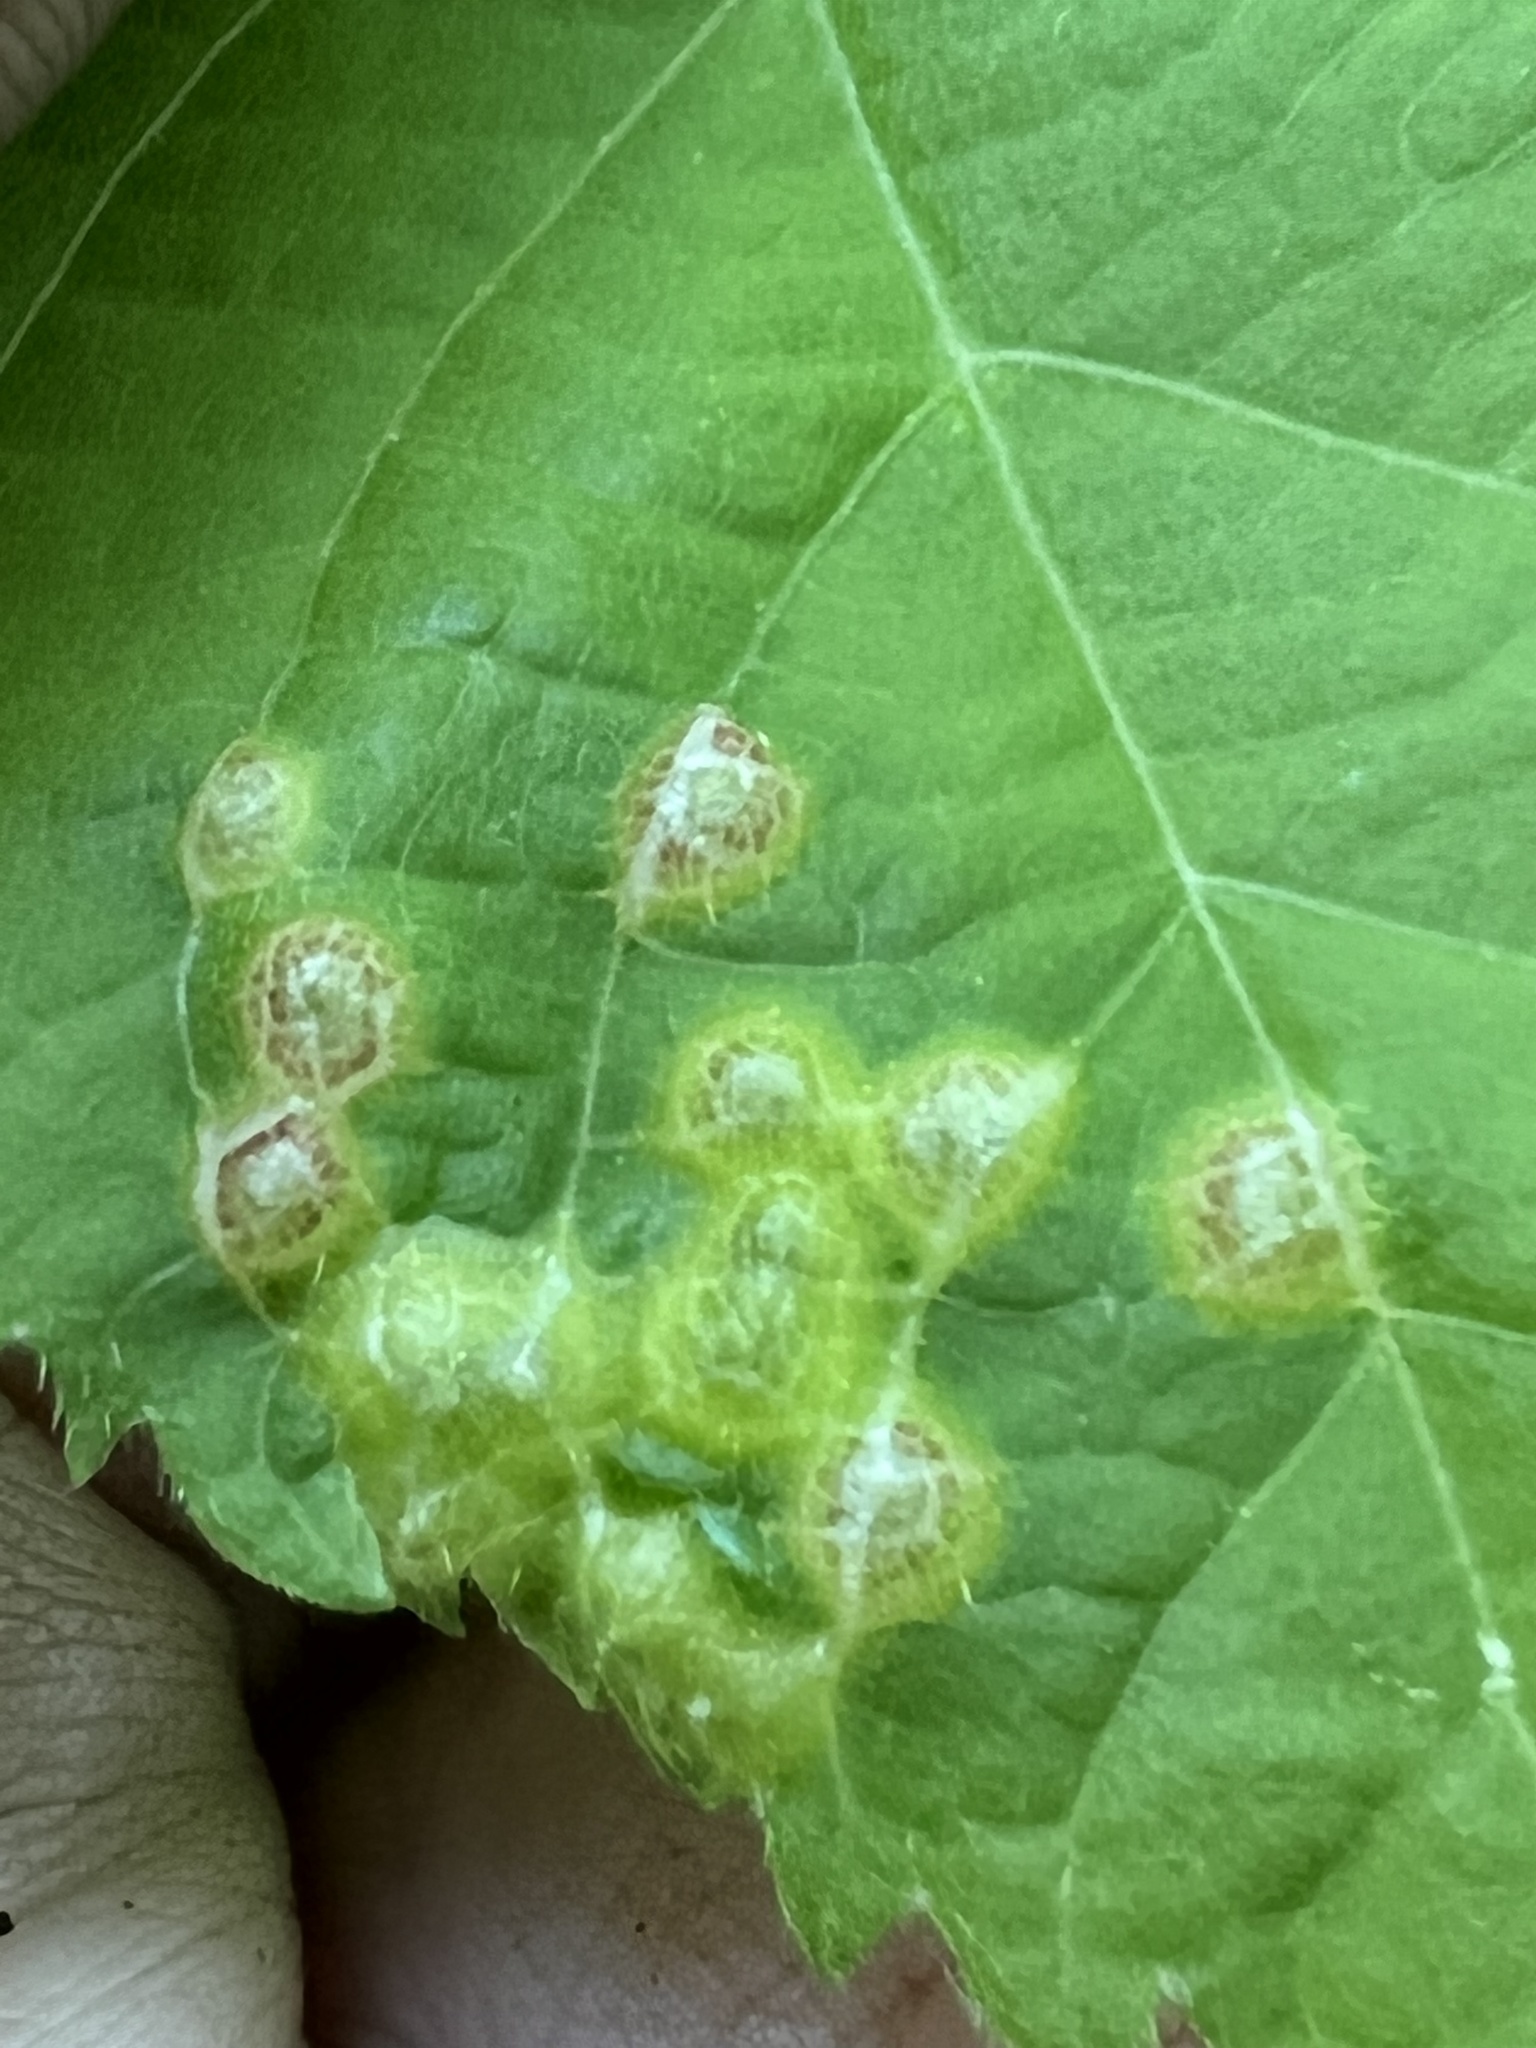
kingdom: Animalia
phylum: Arthropoda
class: Insecta
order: Diptera
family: Cecidomyiidae
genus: Contarinia
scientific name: Contarinia verrucicola
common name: Linden wart gall midge
